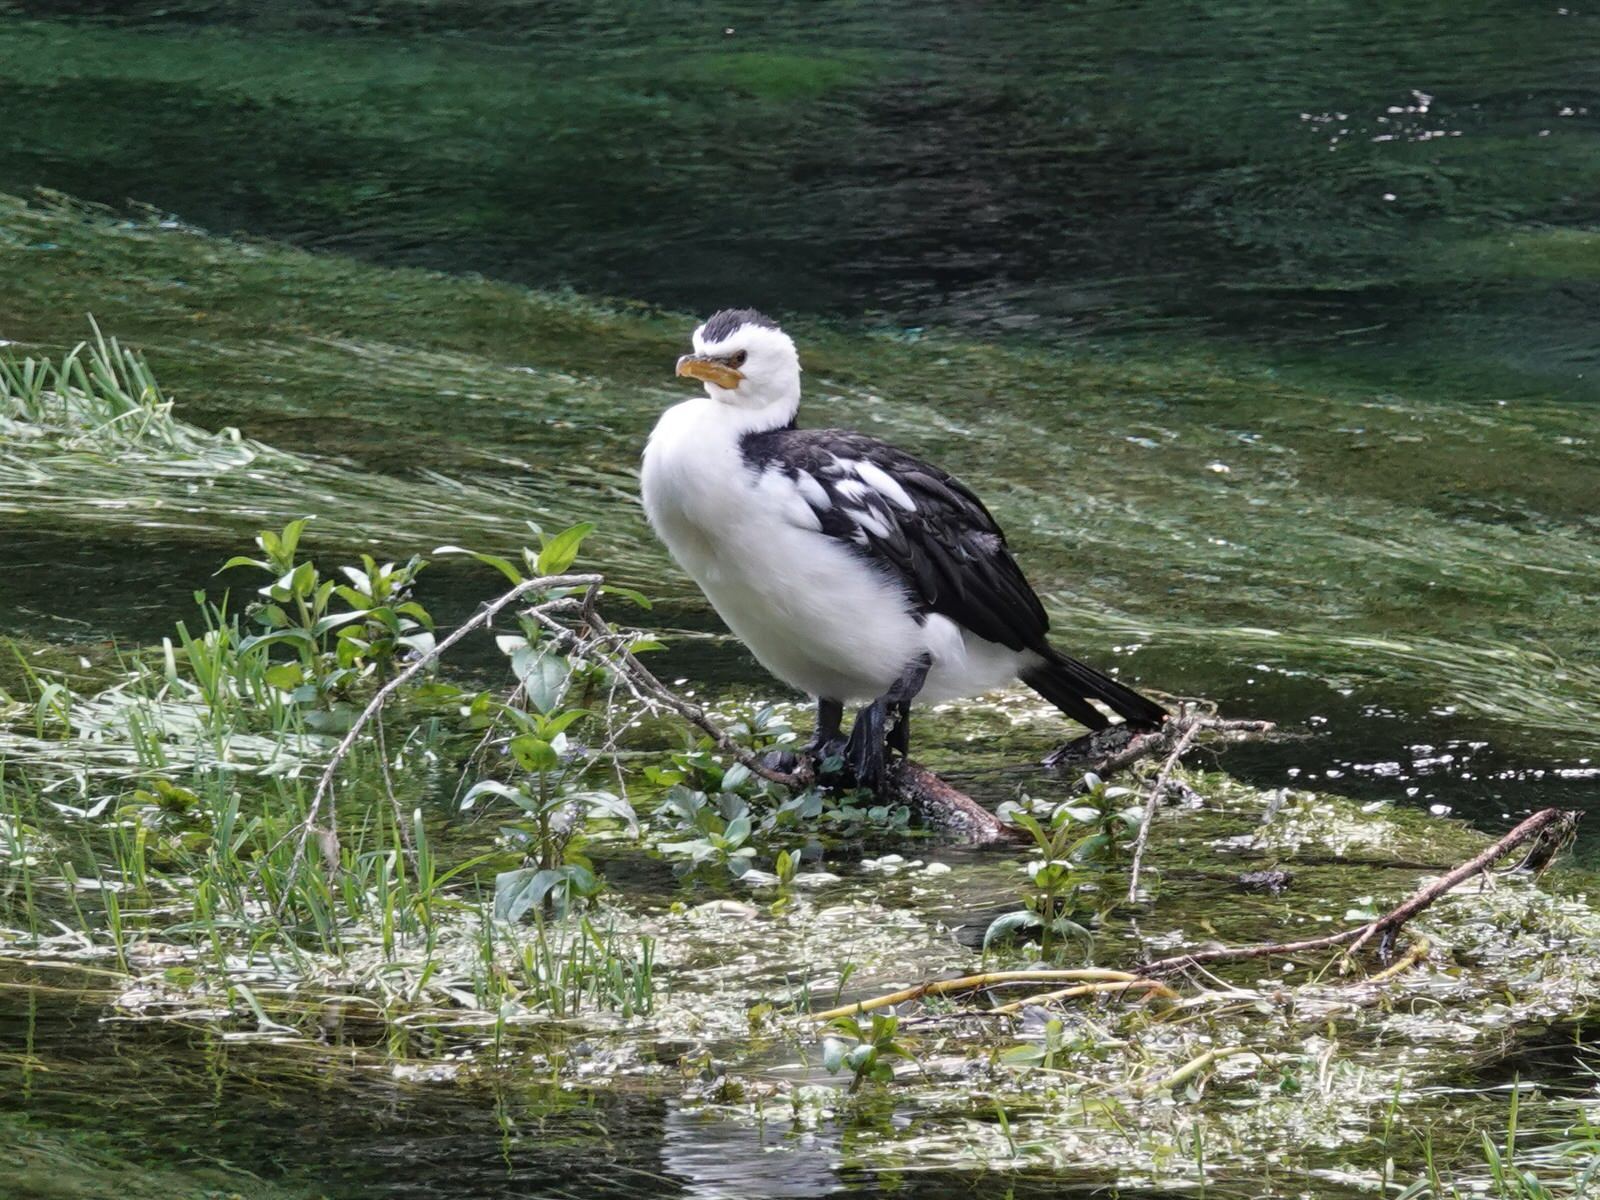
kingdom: Animalia
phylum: Chordata
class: Aves
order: Suliformes
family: Phalacrocoracidae
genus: Microcarbo
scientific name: Microcarbo melanoleucos
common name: Little pied cormorant
